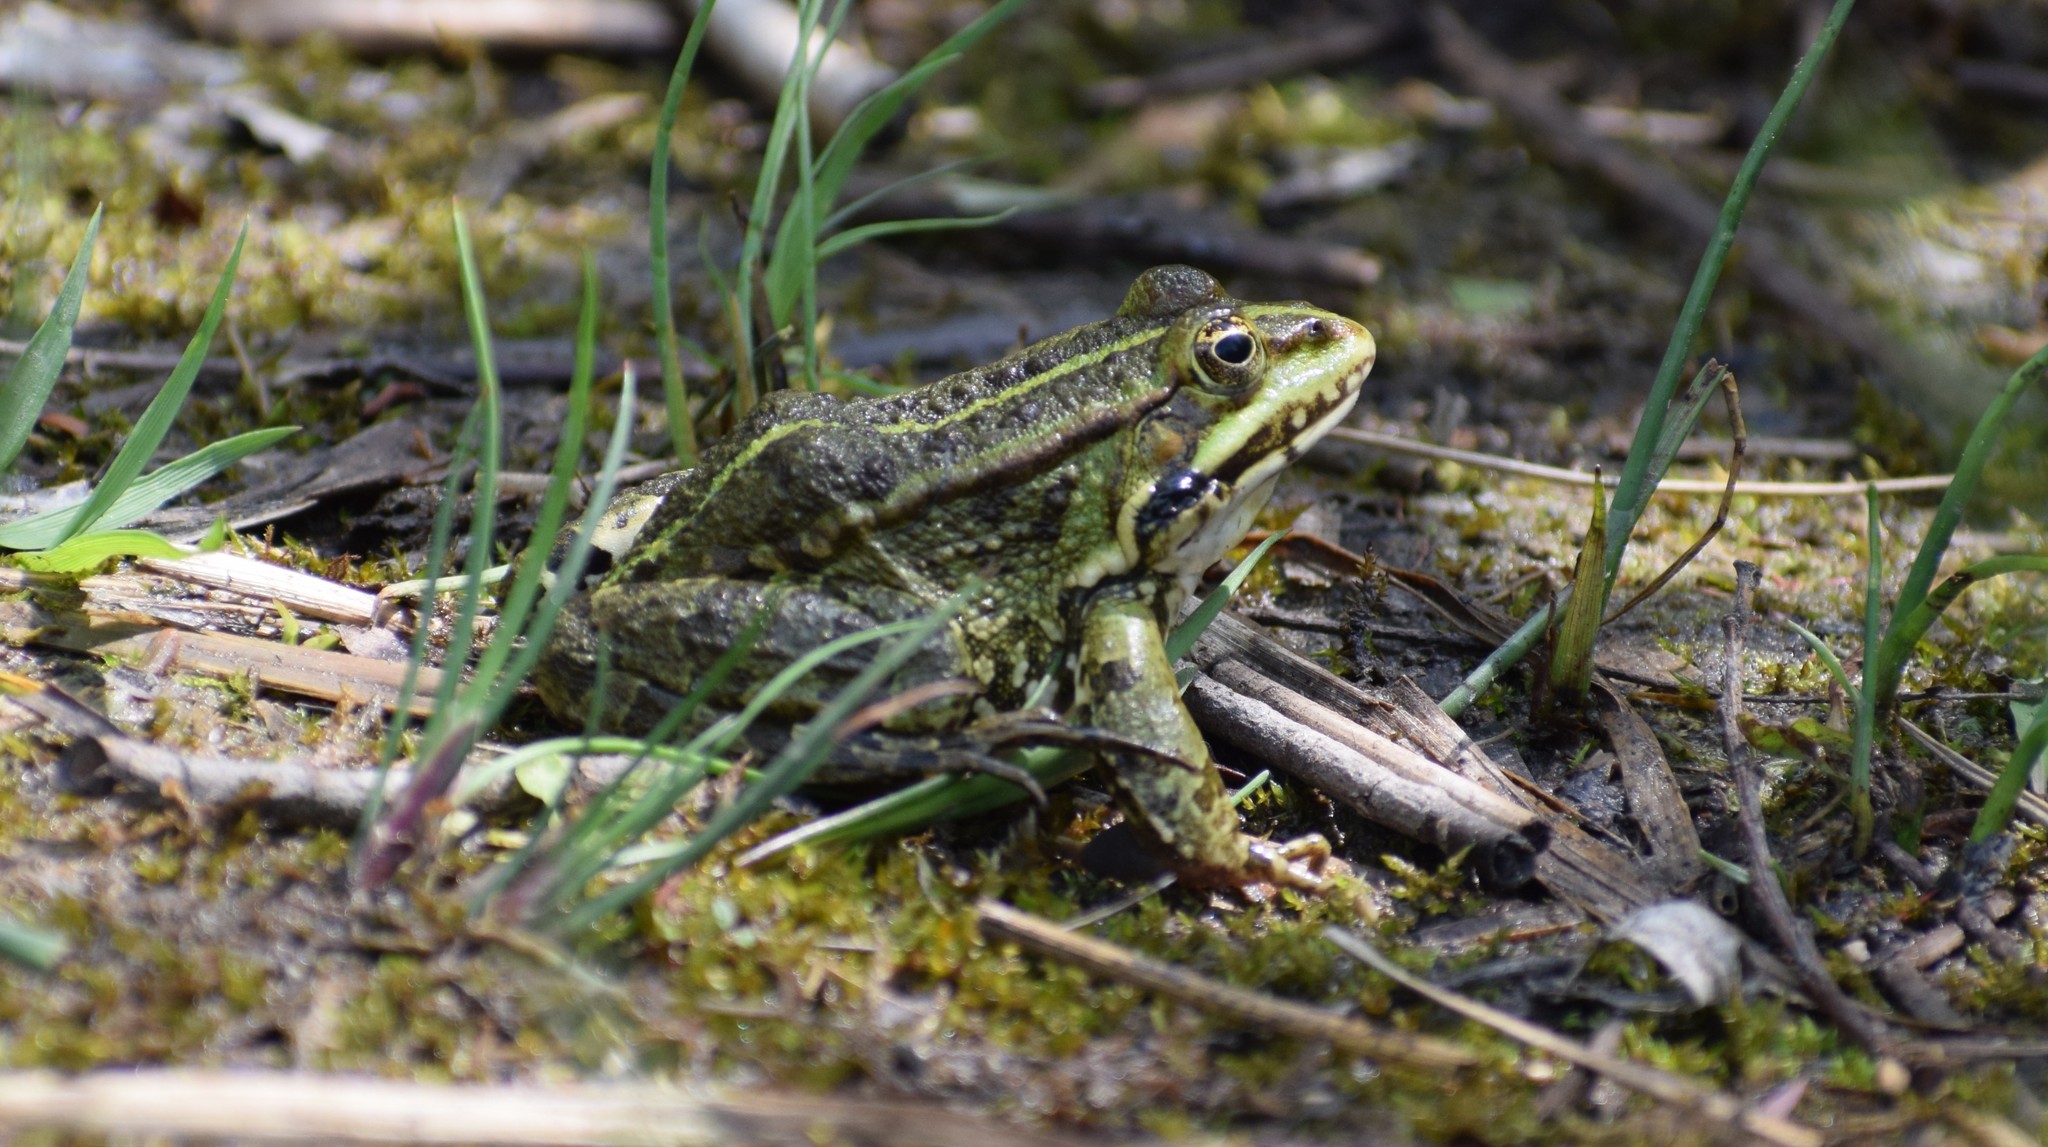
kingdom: Animalia
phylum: Chordata
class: Amphibia
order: Anura
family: Ranidae
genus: Pelophylax
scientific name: Pelophylax
